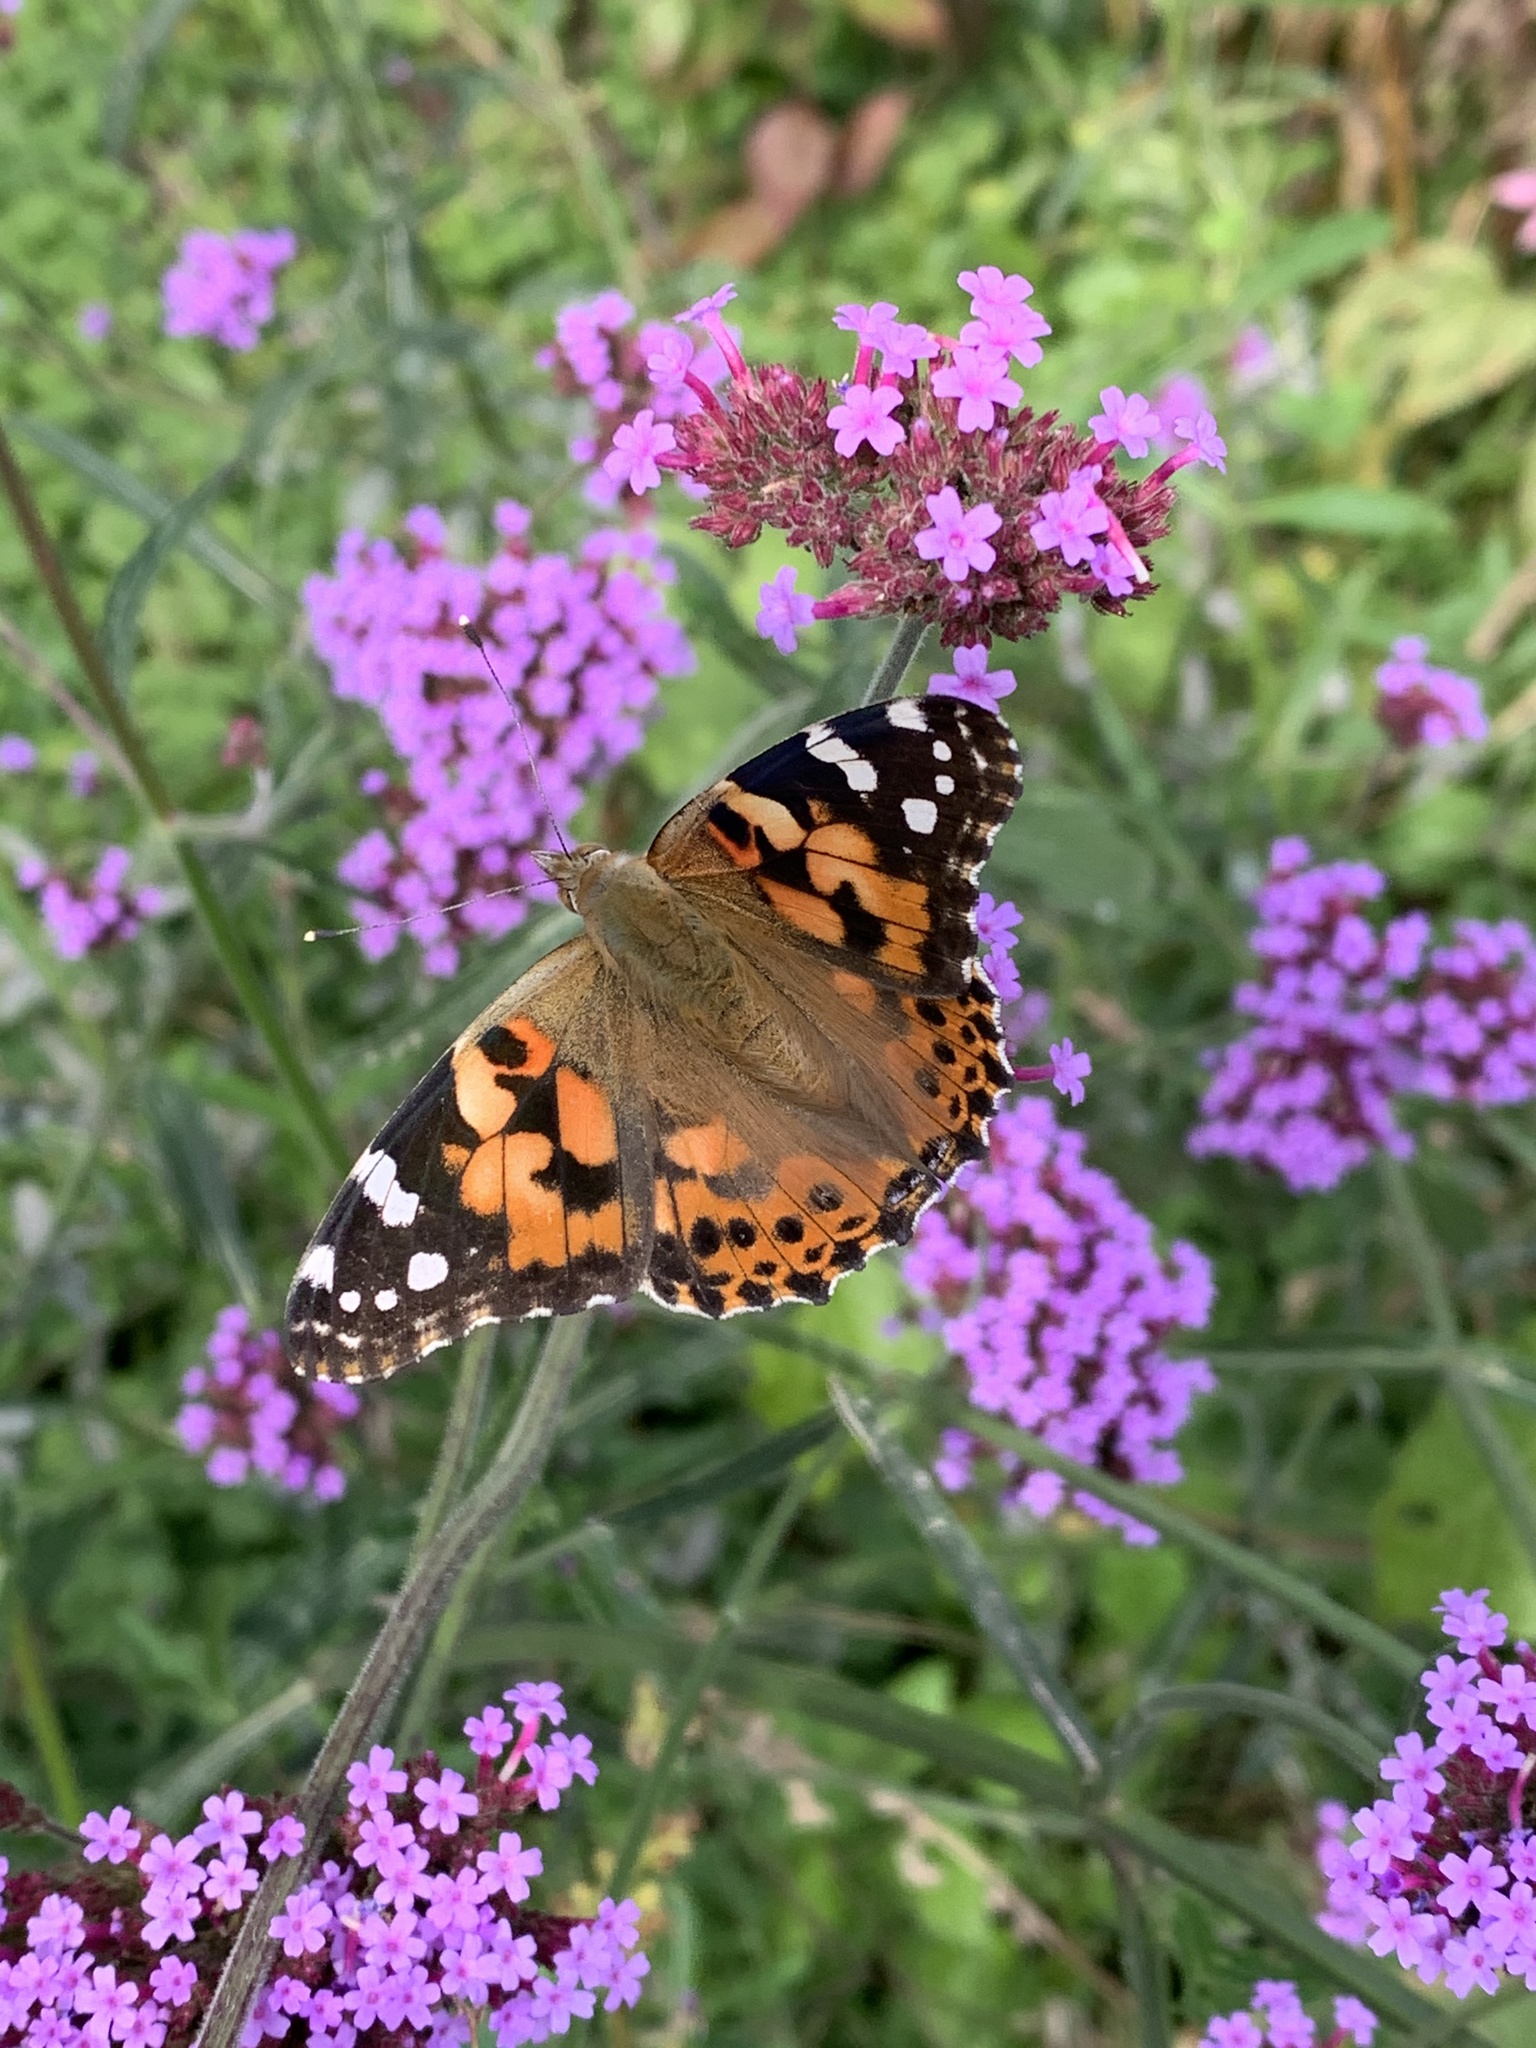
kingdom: Animalia
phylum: Arthropoda
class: Insecta
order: Lepidoptera
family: Nymphalidae
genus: Vanessa
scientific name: Vanessa cardui
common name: Painted lady
